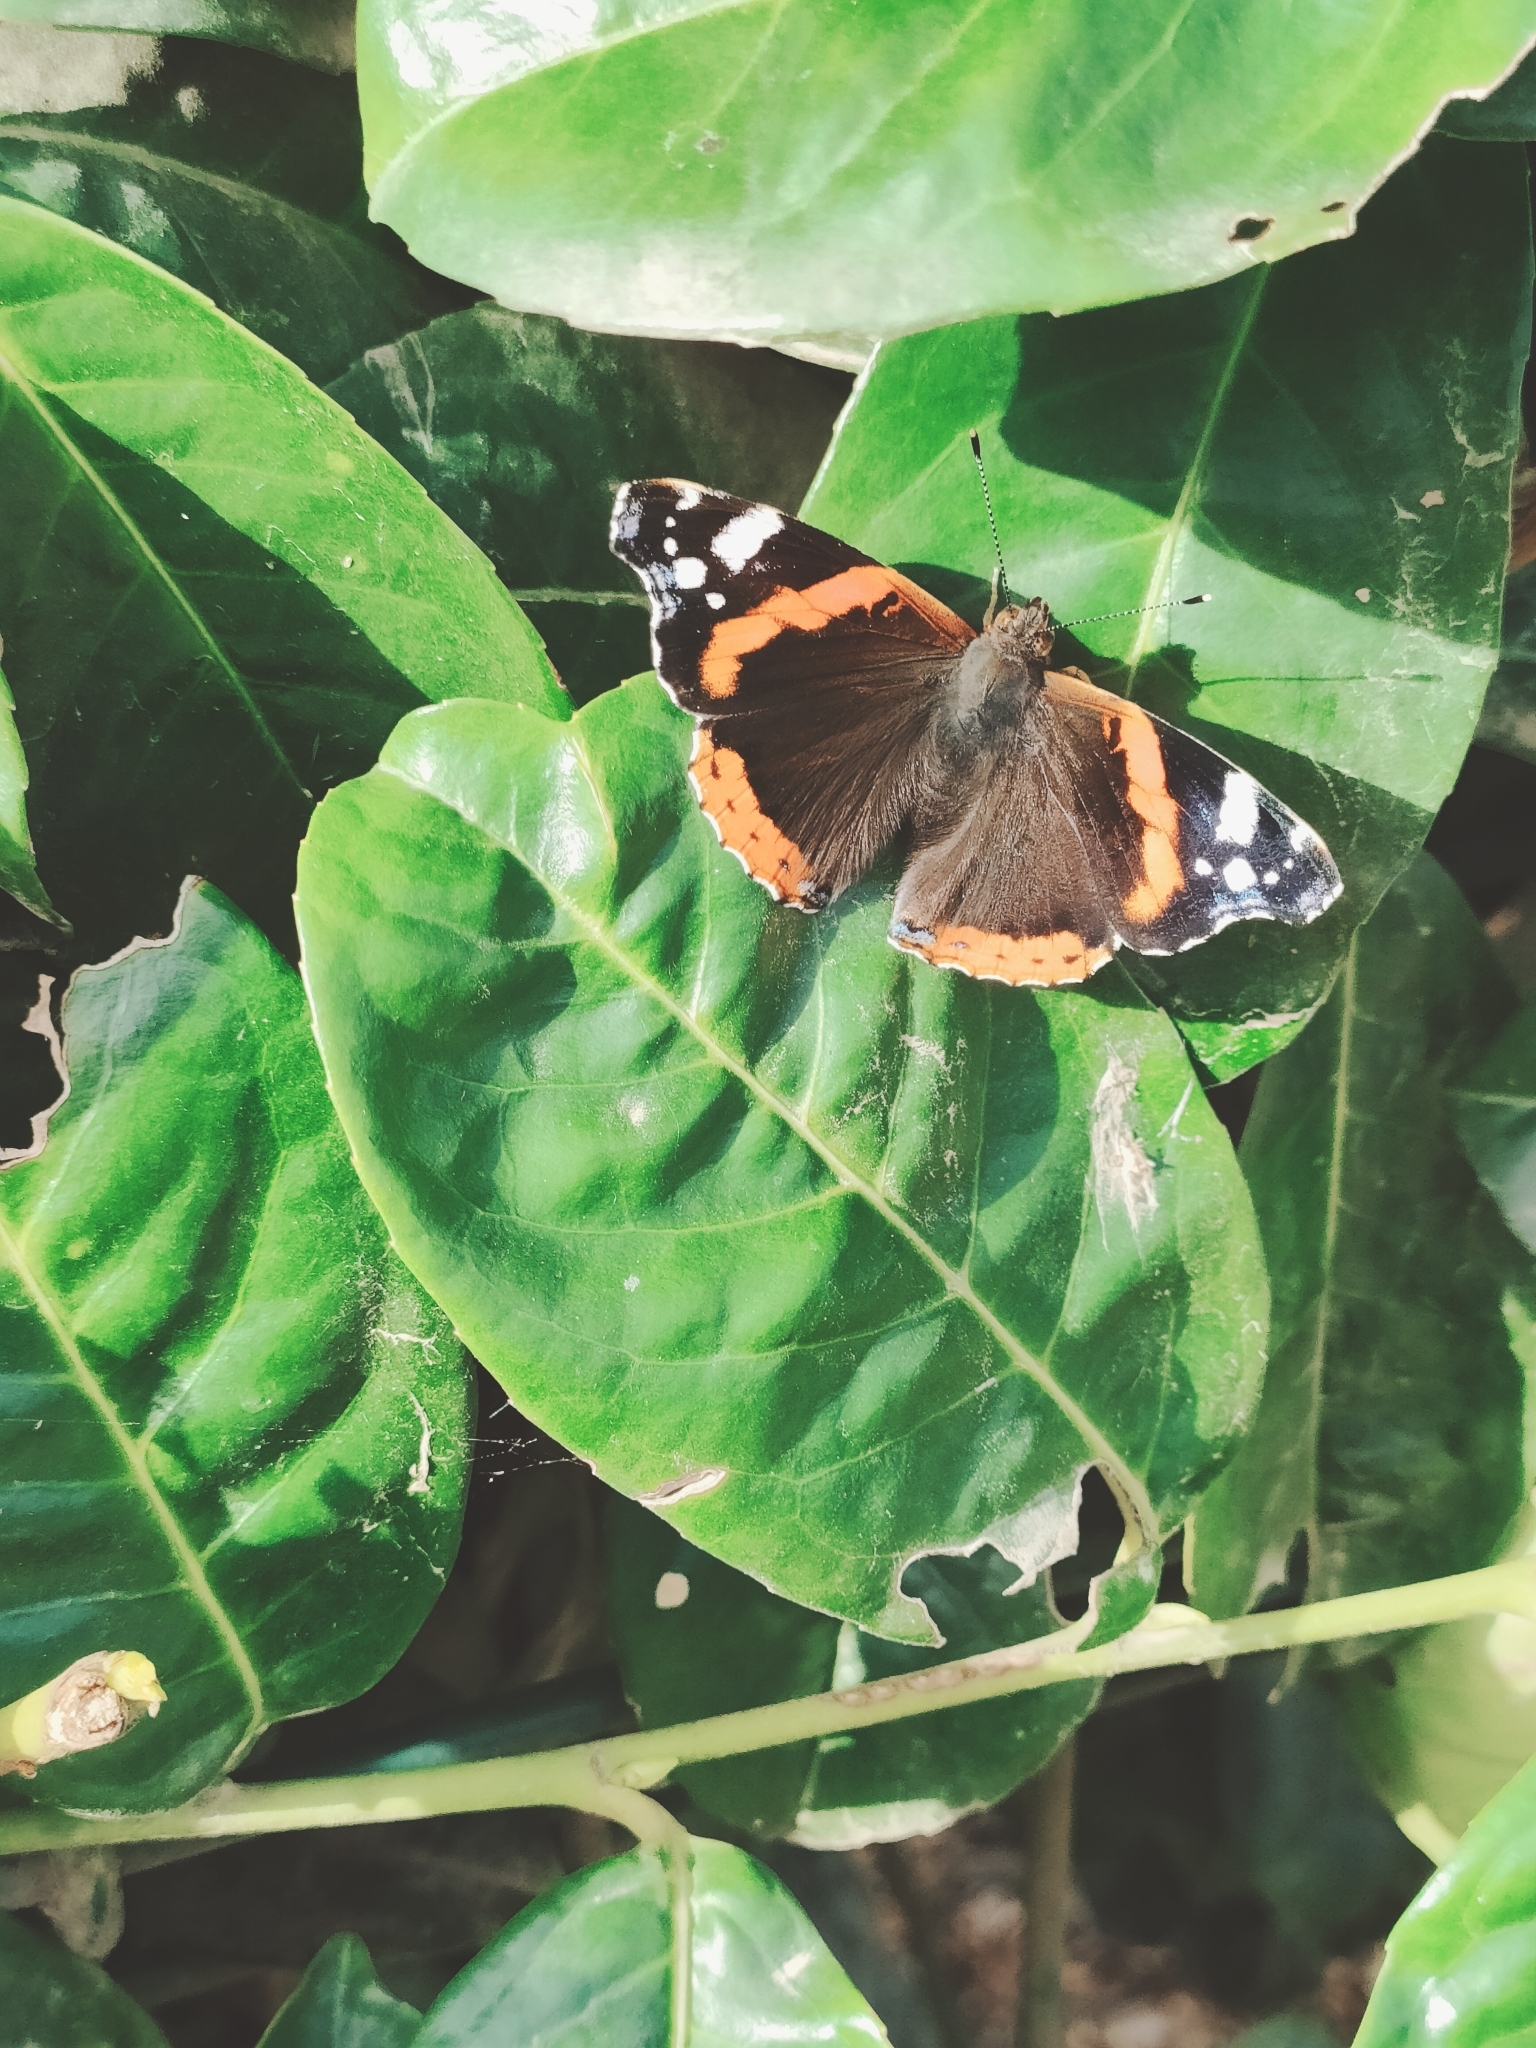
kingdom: Animalia
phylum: Arthropoda
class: Insecta
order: Lepidoptera
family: Nymphalidae
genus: Vanessa
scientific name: Vanessa atalanta
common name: Red admiral
